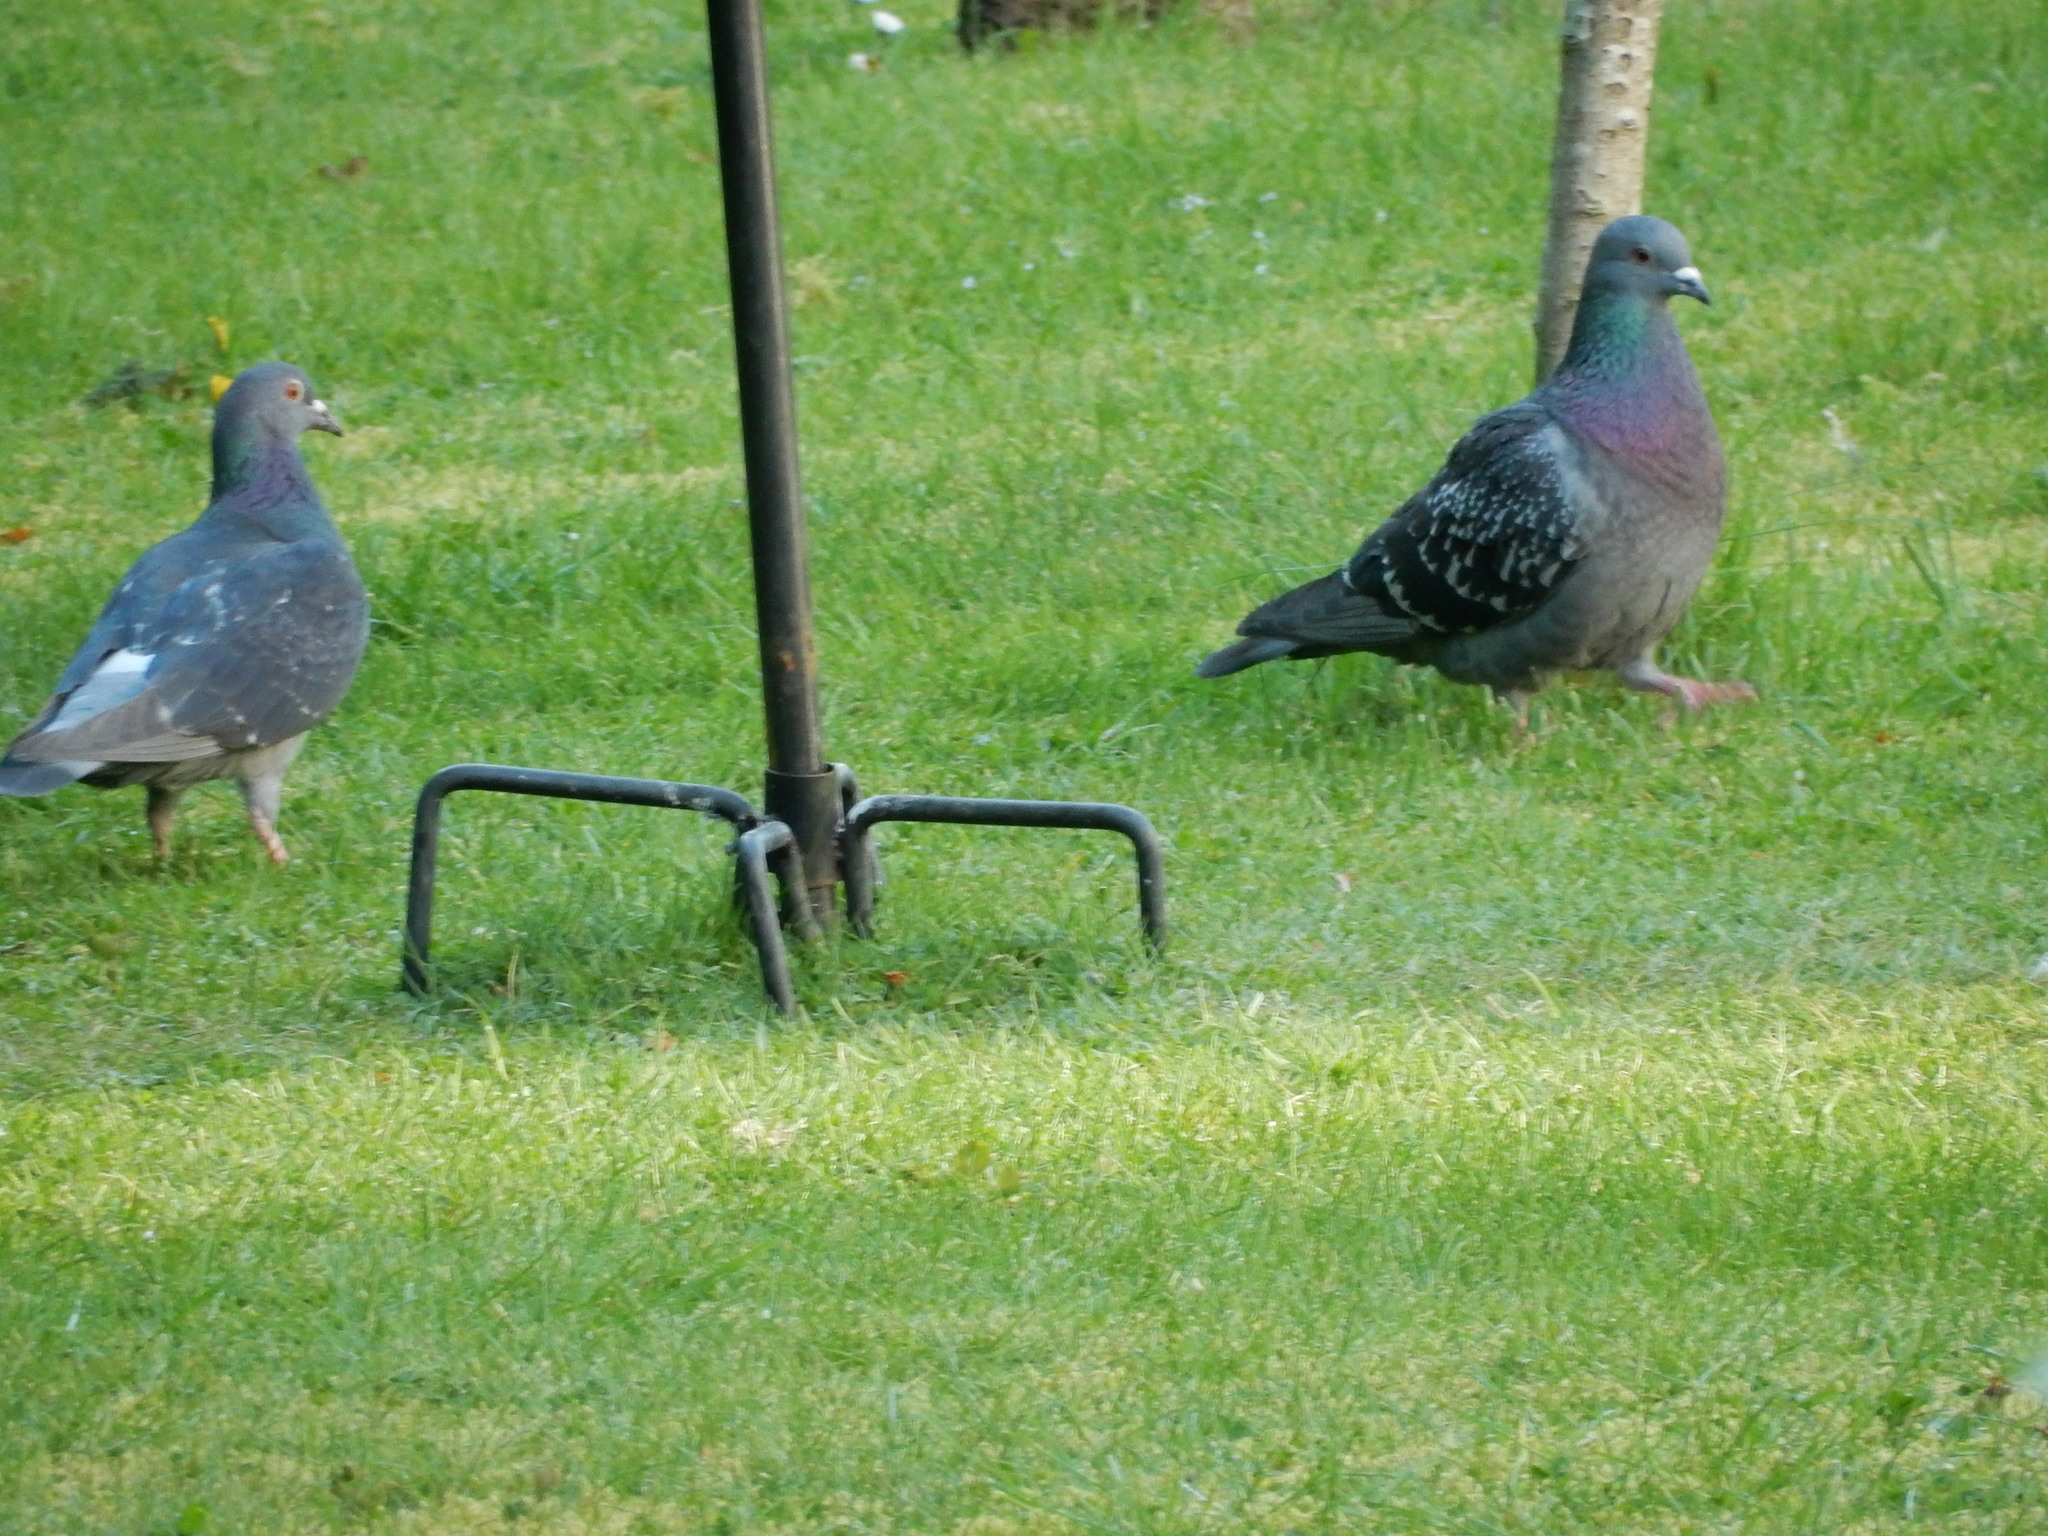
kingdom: Animalia
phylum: Chordata
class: Aves
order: Columbiformes
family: Columbidae
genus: Columba
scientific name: Columba livia
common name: Rock pigeon
